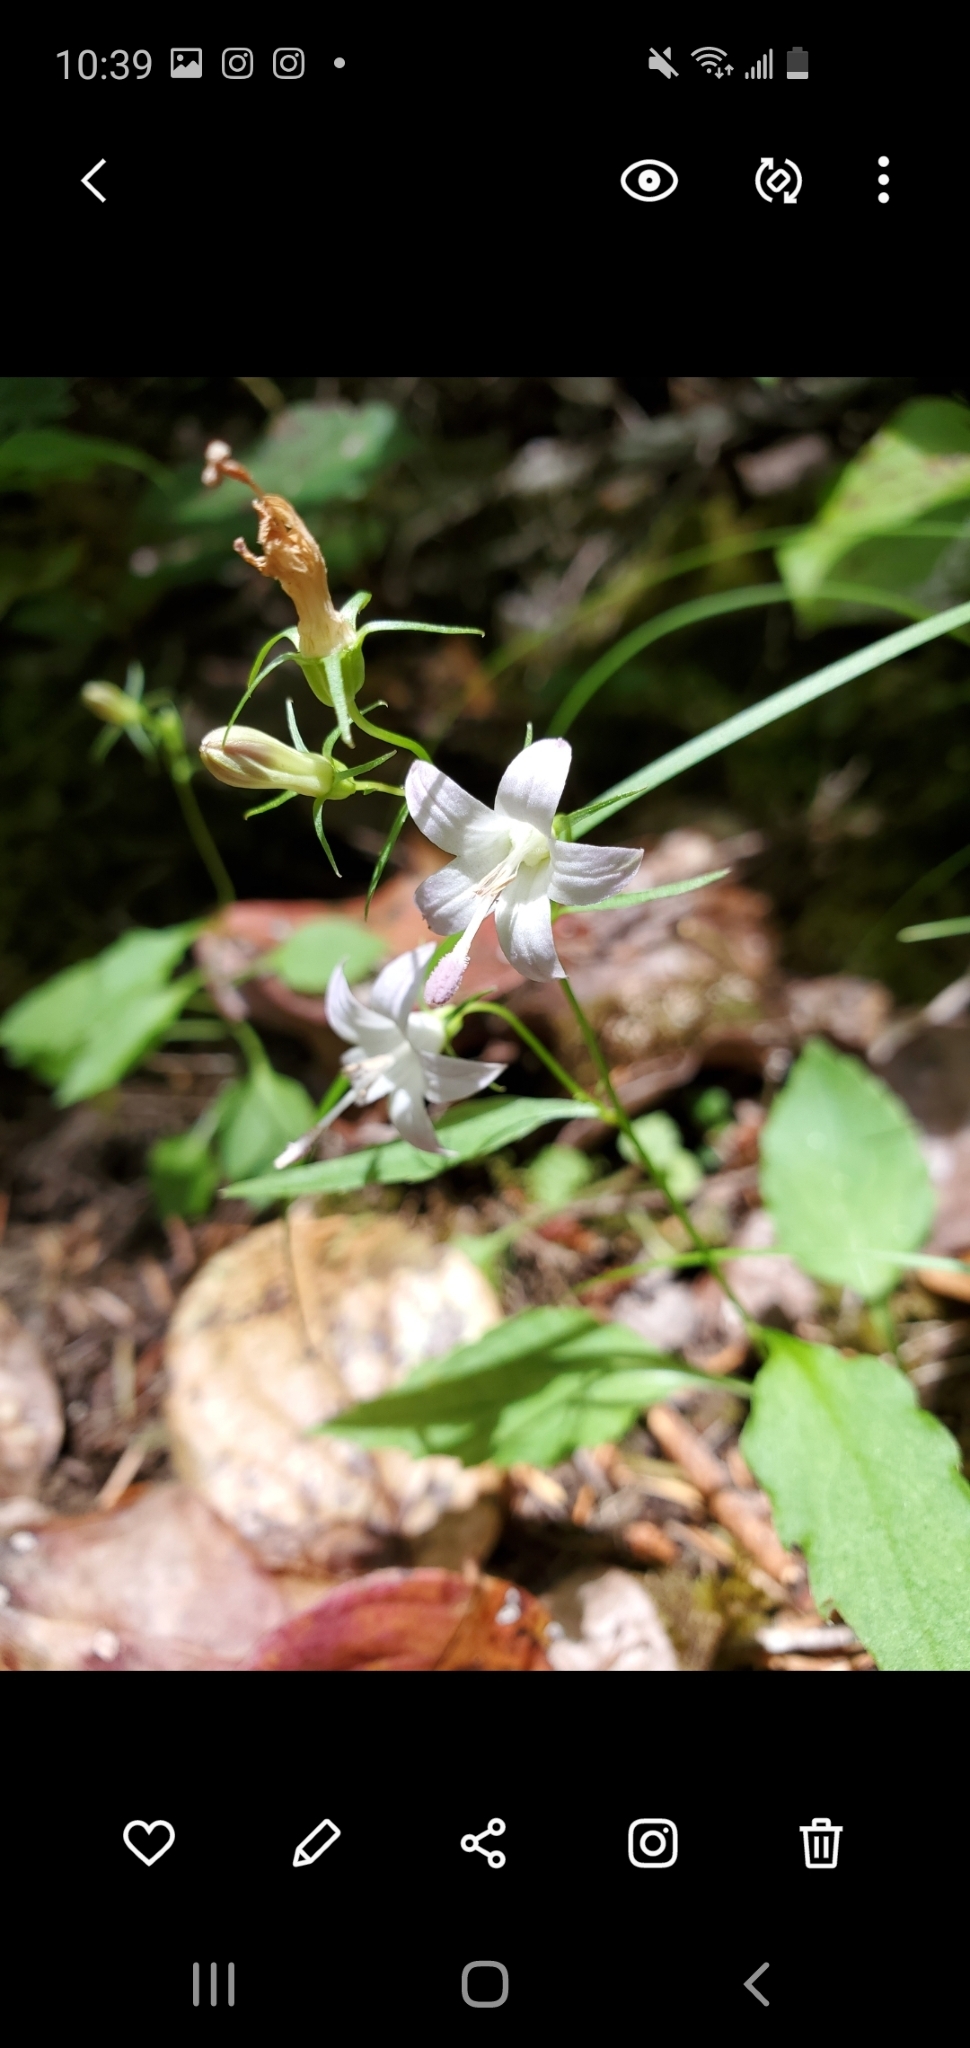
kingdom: Plantae
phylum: Tracheophyta
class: Magnoliopsida
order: Asterales
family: Campanulaceae
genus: Campanula
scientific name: Campanula scouleri
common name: Scouler's harebell
